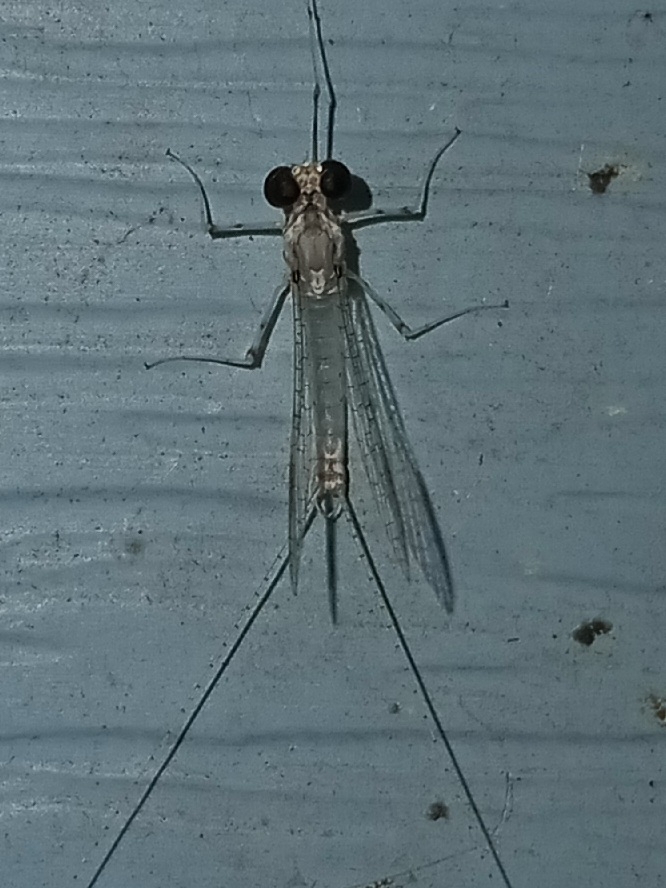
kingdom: Animalia
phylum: Arthropoda
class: Insecta
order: Ephemeroptera
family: Heptageniidae
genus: Maccaffertium
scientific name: Maccaffertium modestum
